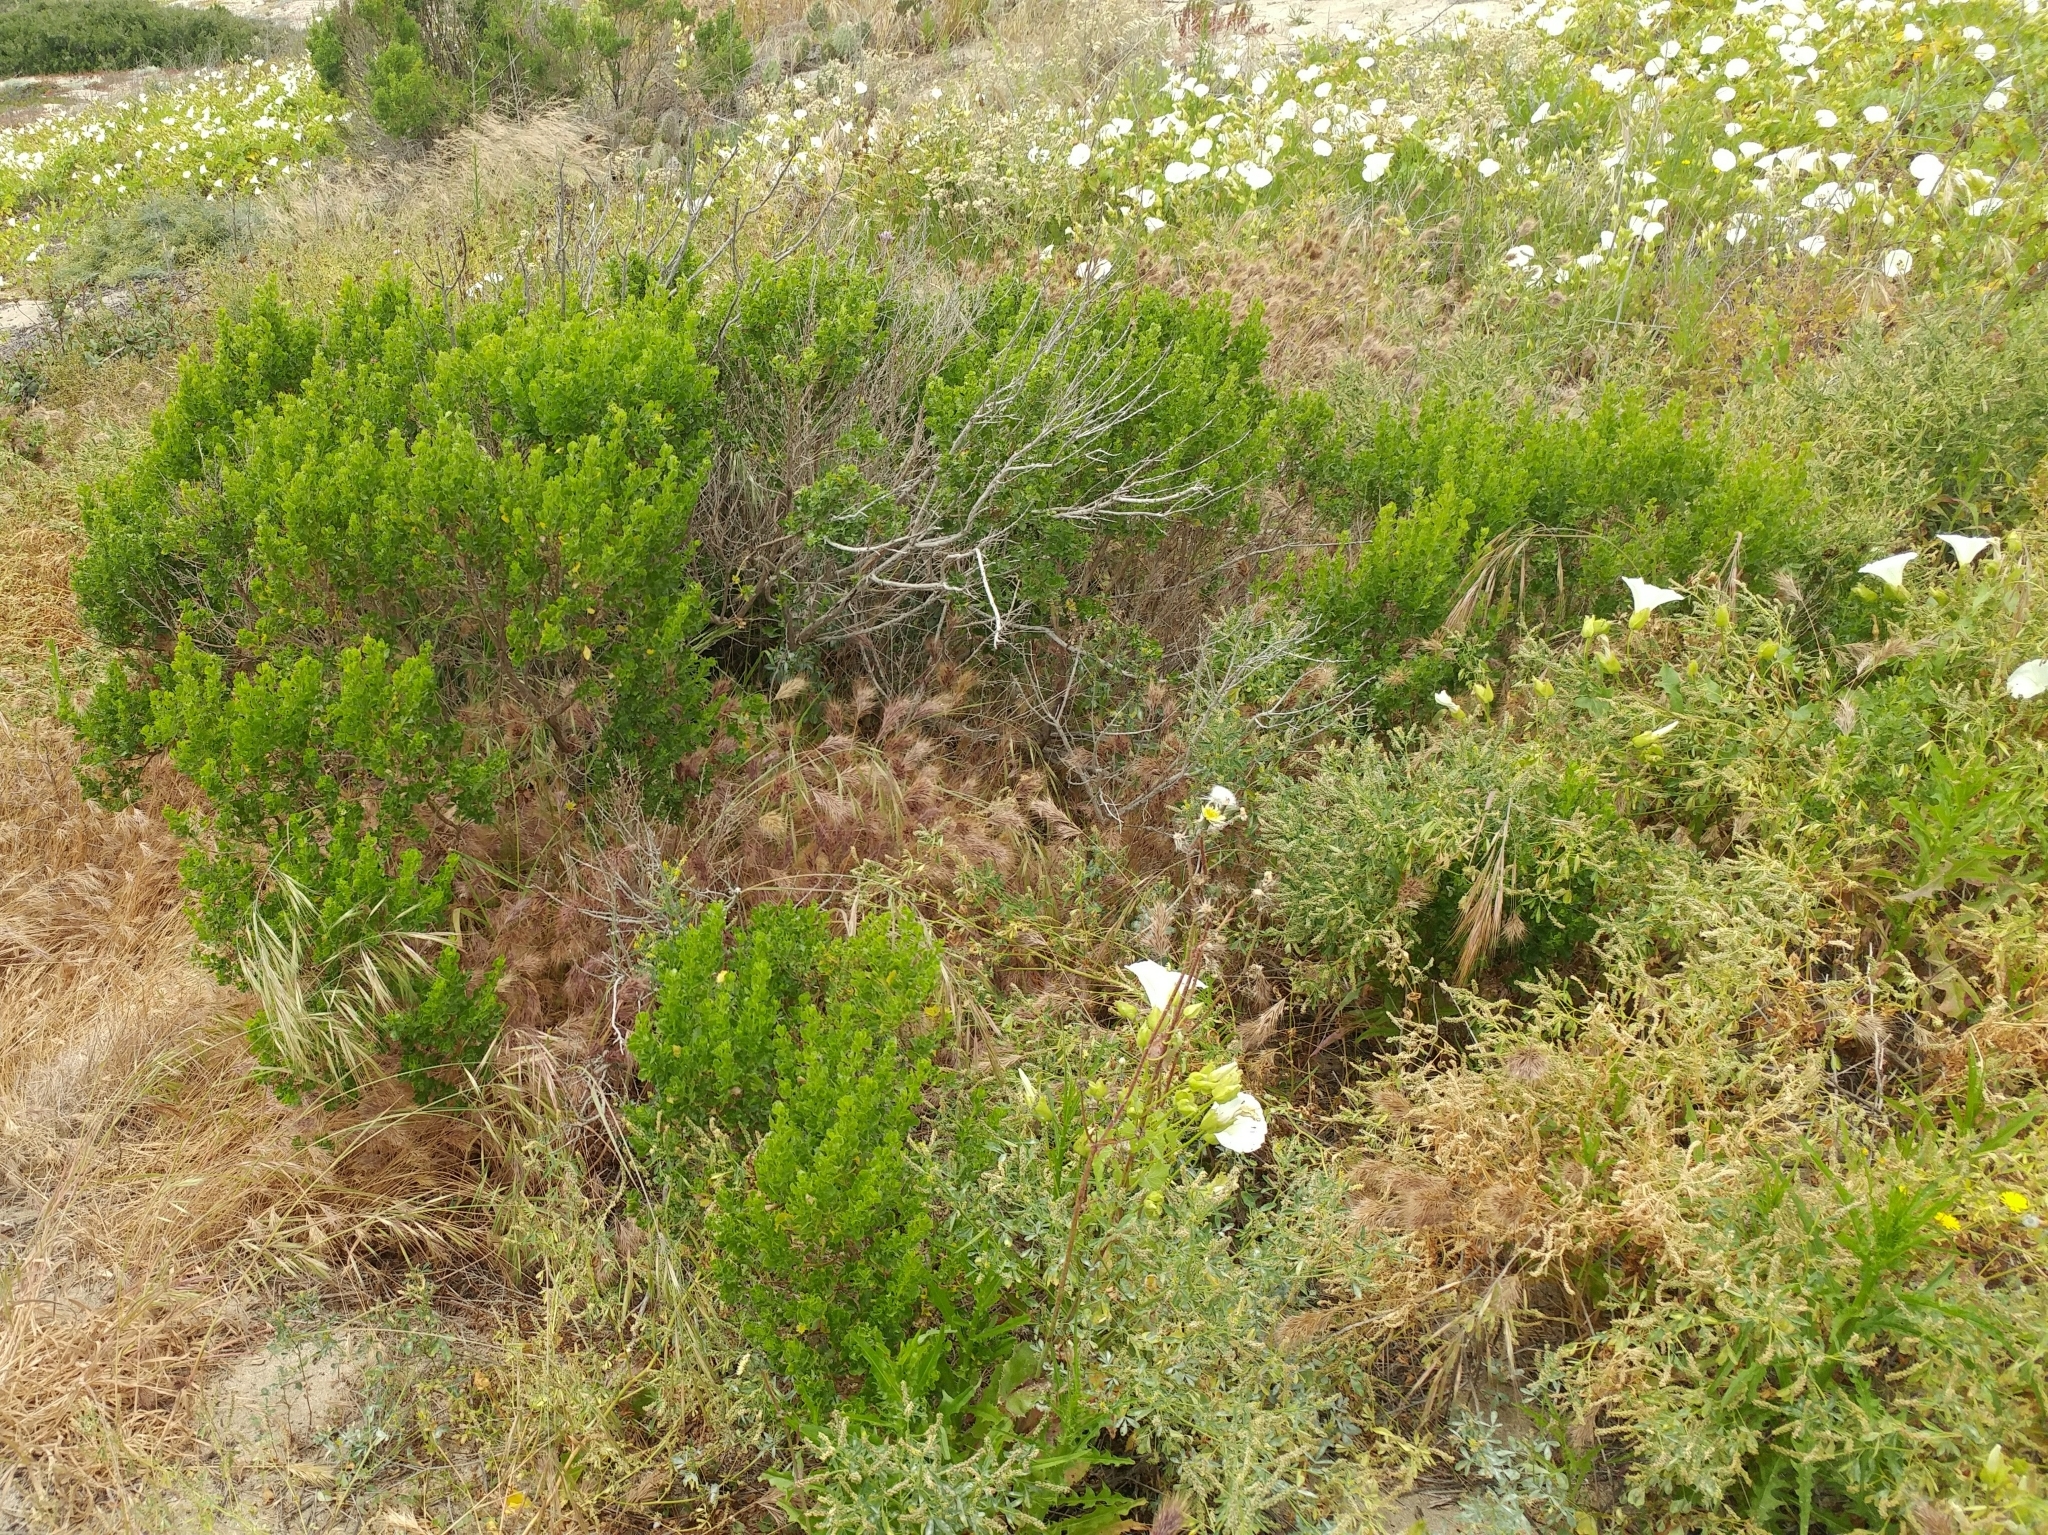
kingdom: Plantae
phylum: Tracheophyta
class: Magnoliopsida
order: Asterales
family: Asteraceae
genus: Baccharis
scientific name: Baccharis pilularis
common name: Coyotebrush
